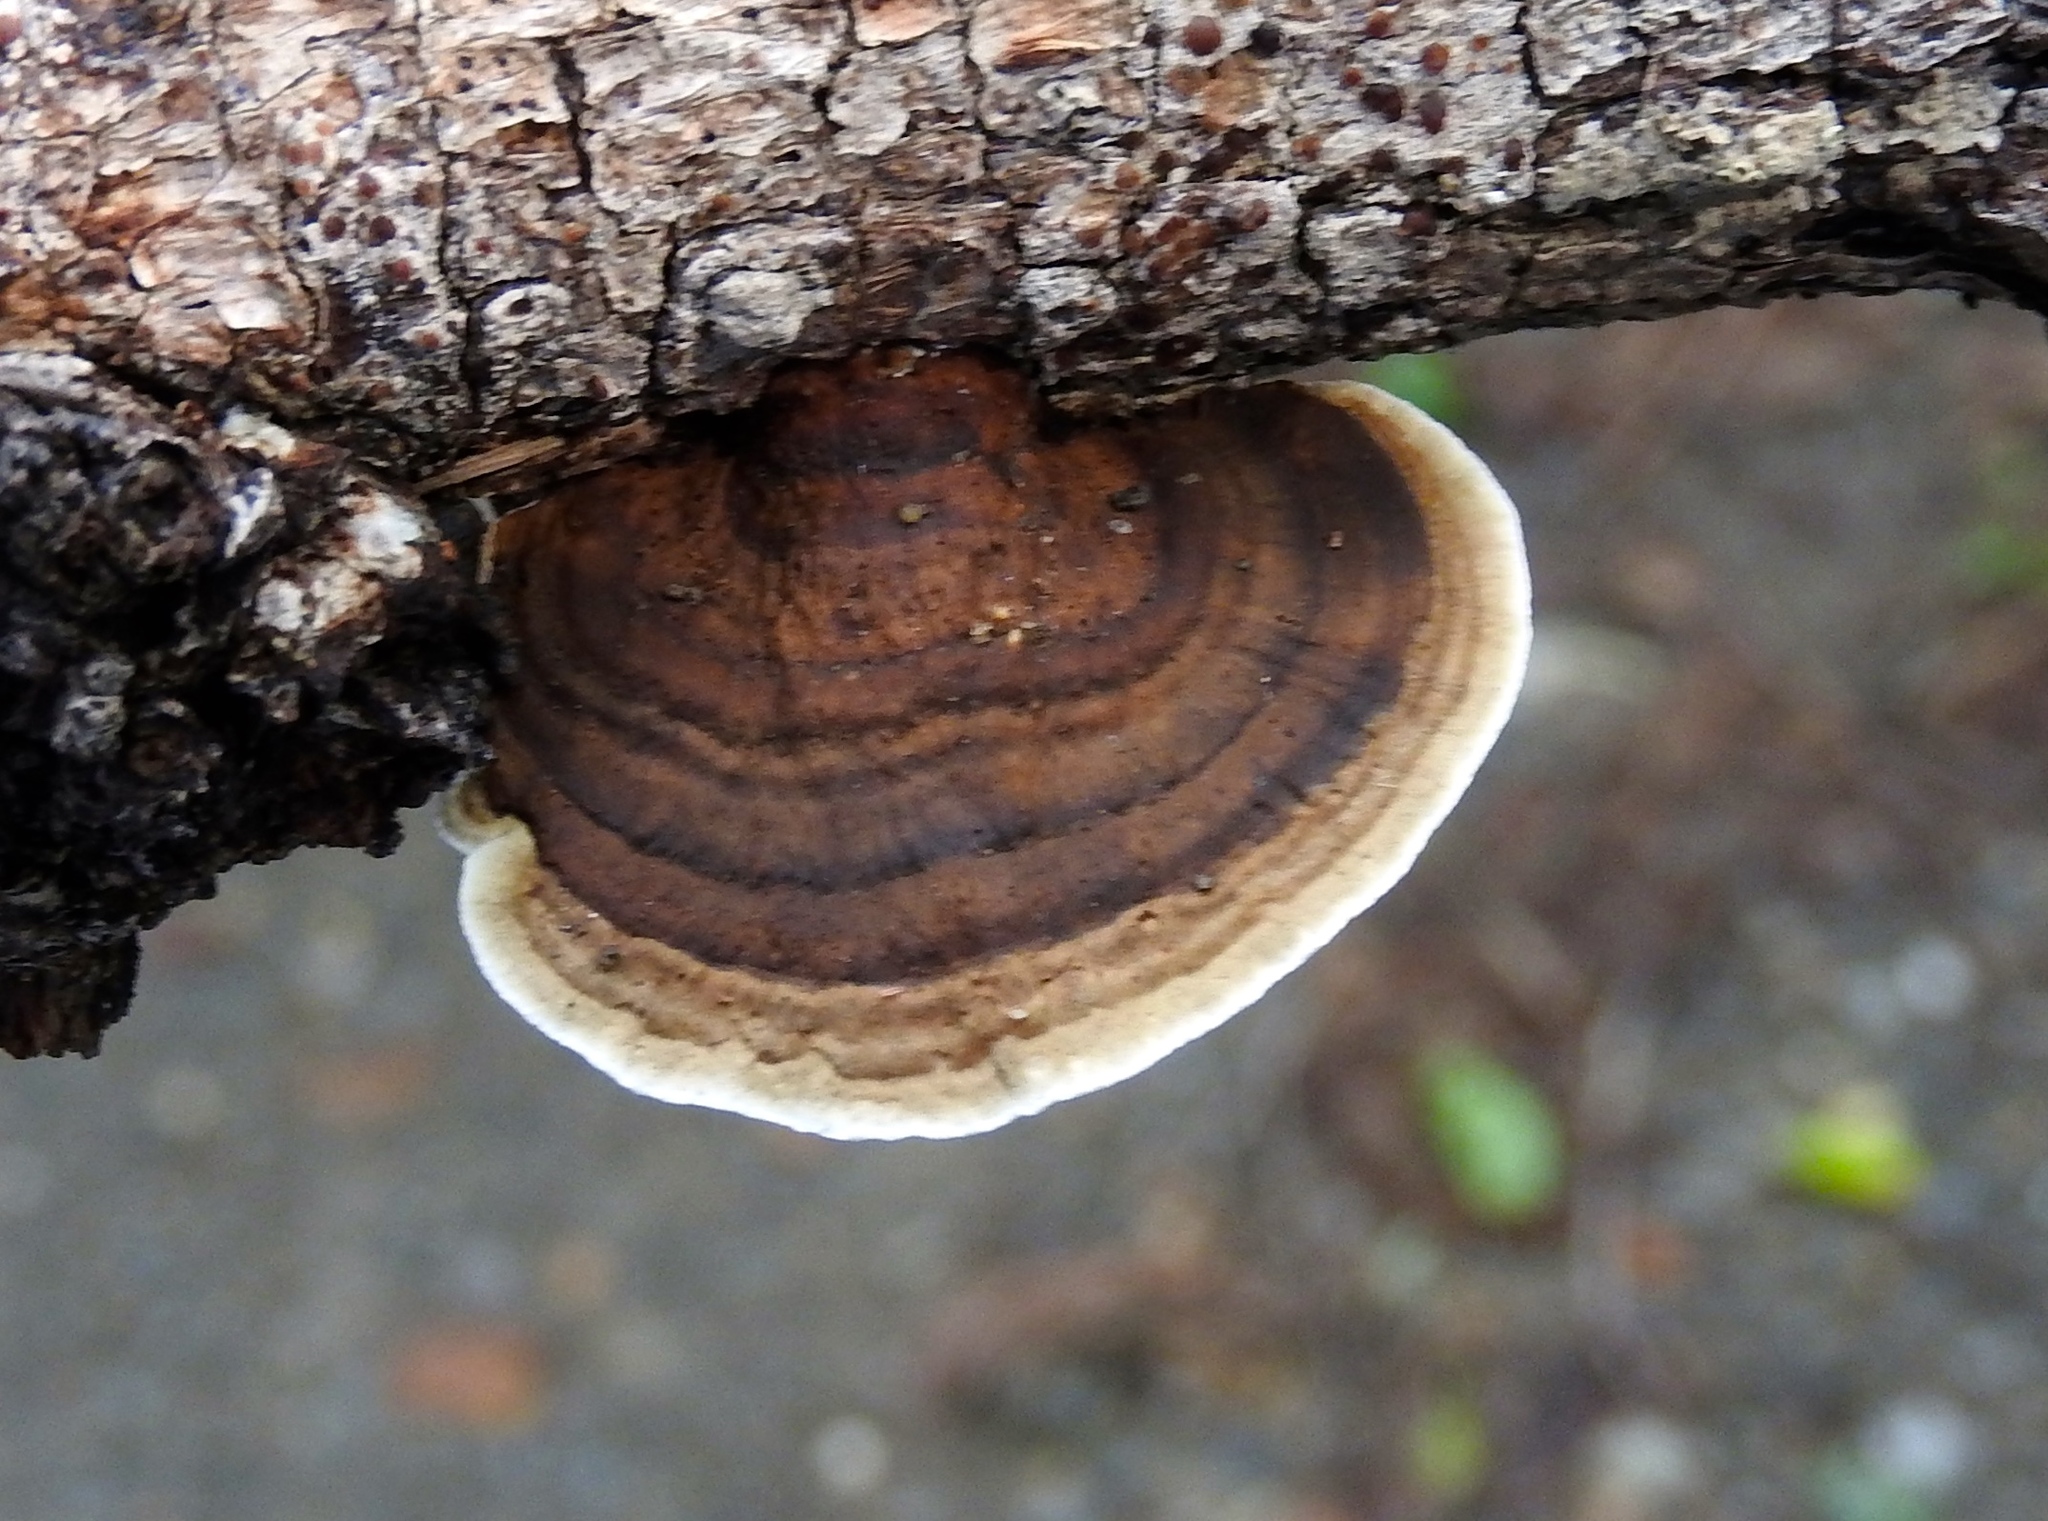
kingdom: Fungi
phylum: Basidiomycota
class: Agaricomycetes
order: Polyporales
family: Polyporaceae
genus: Pseudofavolus
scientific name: Pseudofavolus tenuis
